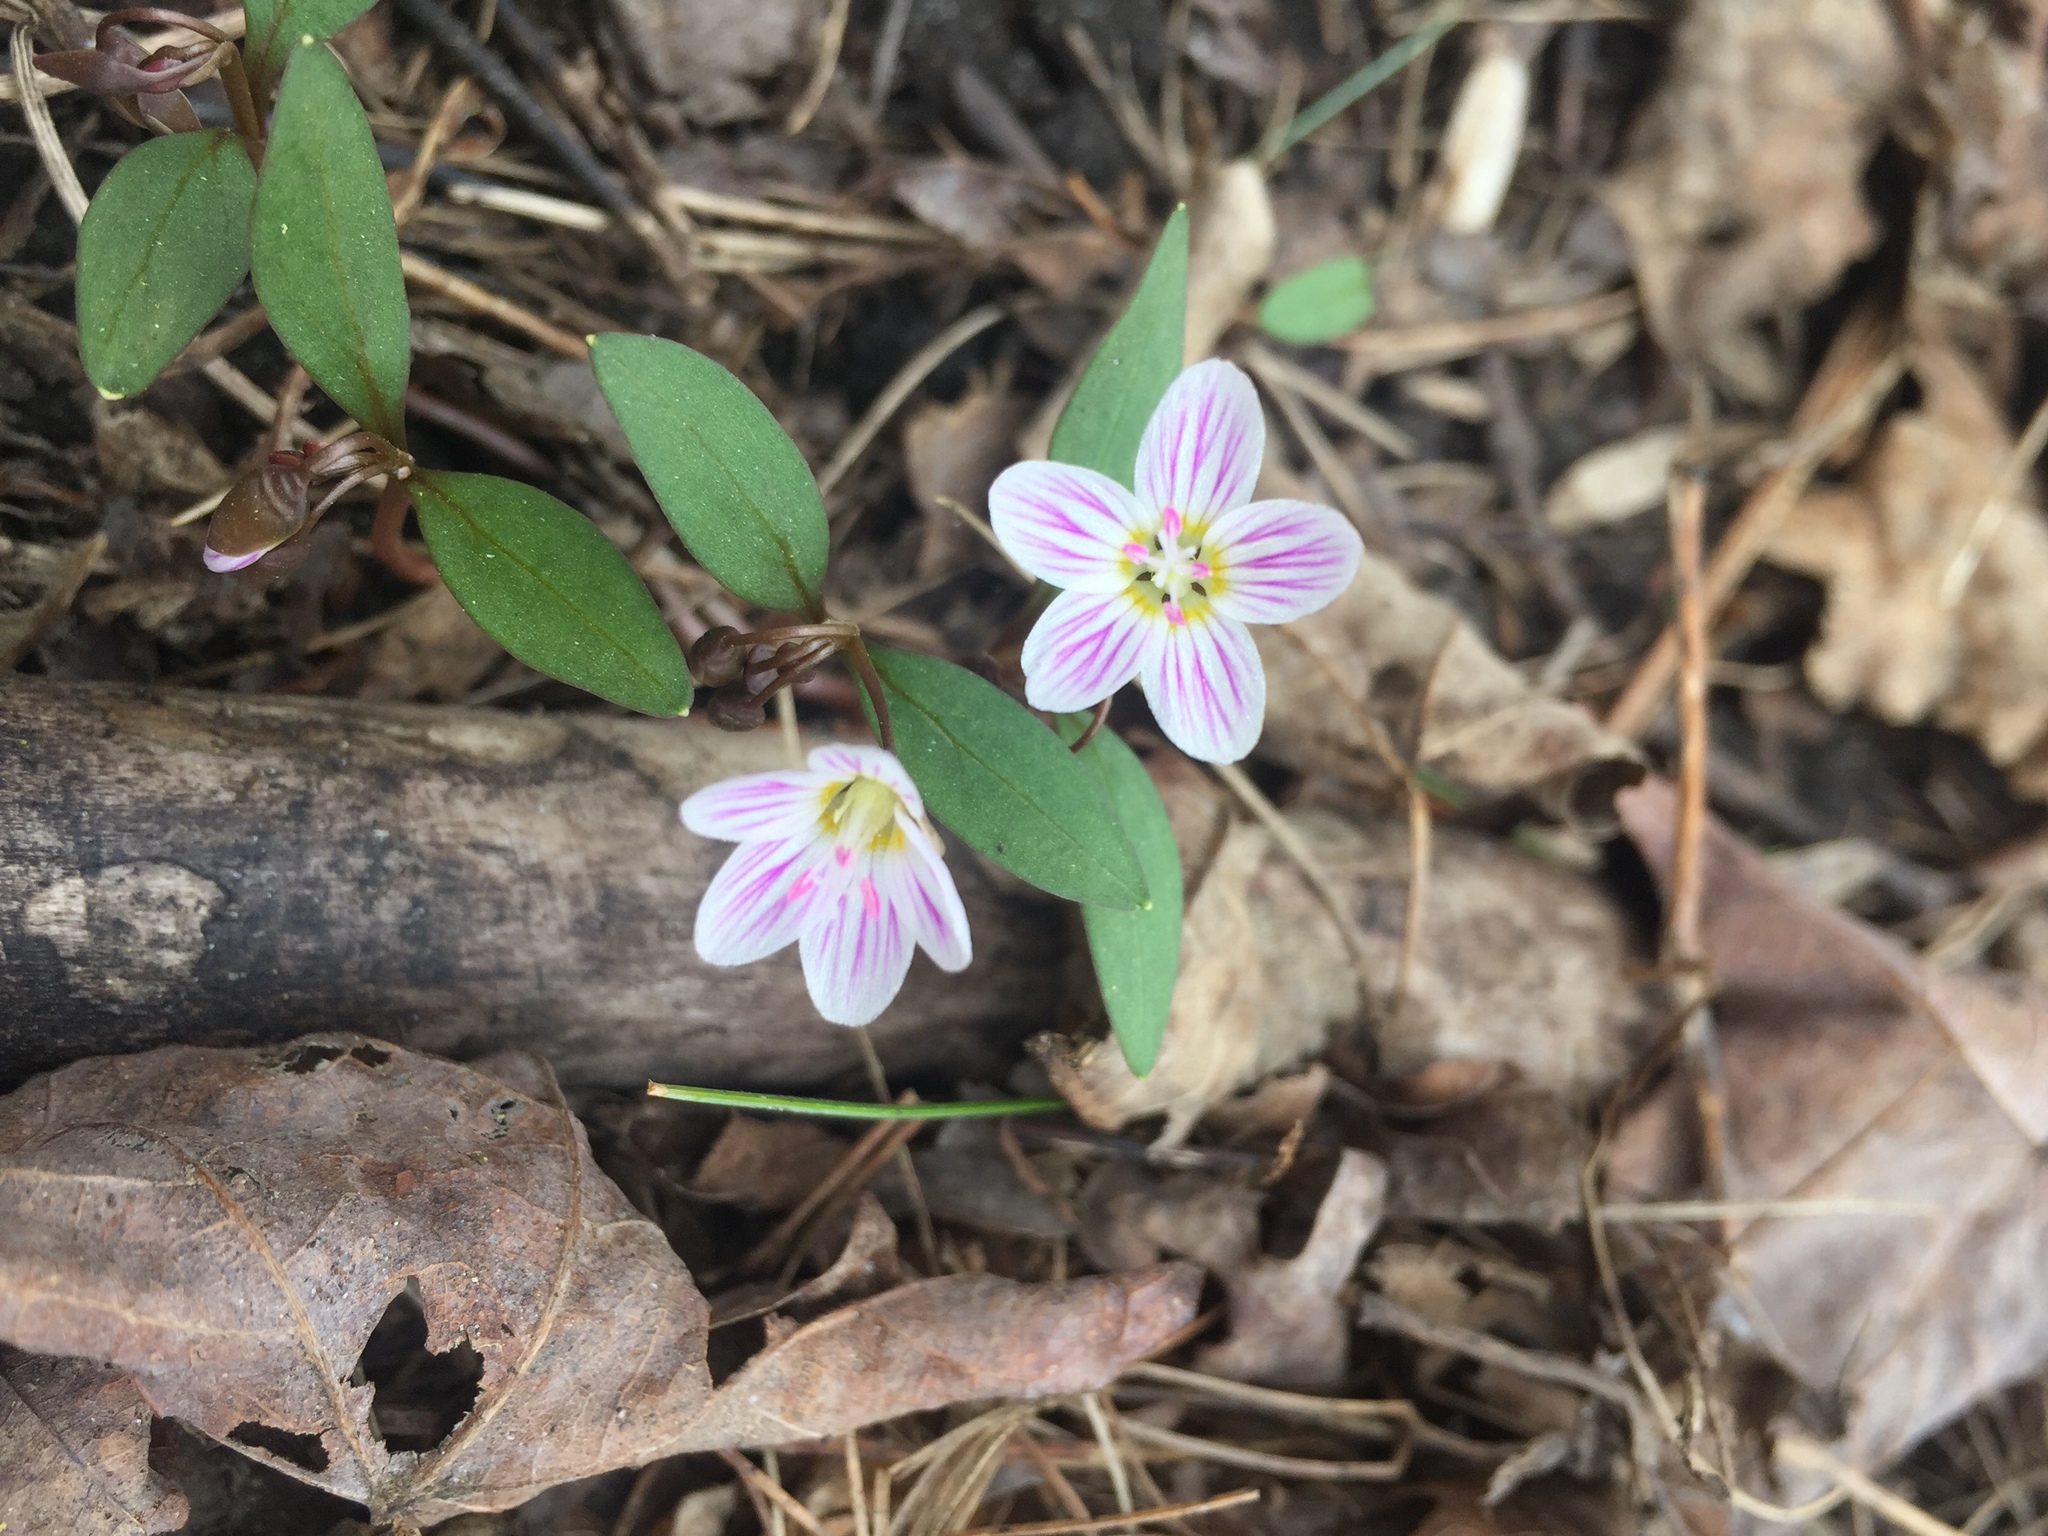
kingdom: Plantae
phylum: Tracheophyta
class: Magnoliopsida
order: Caryophyllales
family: Montiaceae
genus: Claytonia
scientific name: Claytonia caroliniana
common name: Carolina spring beauty
